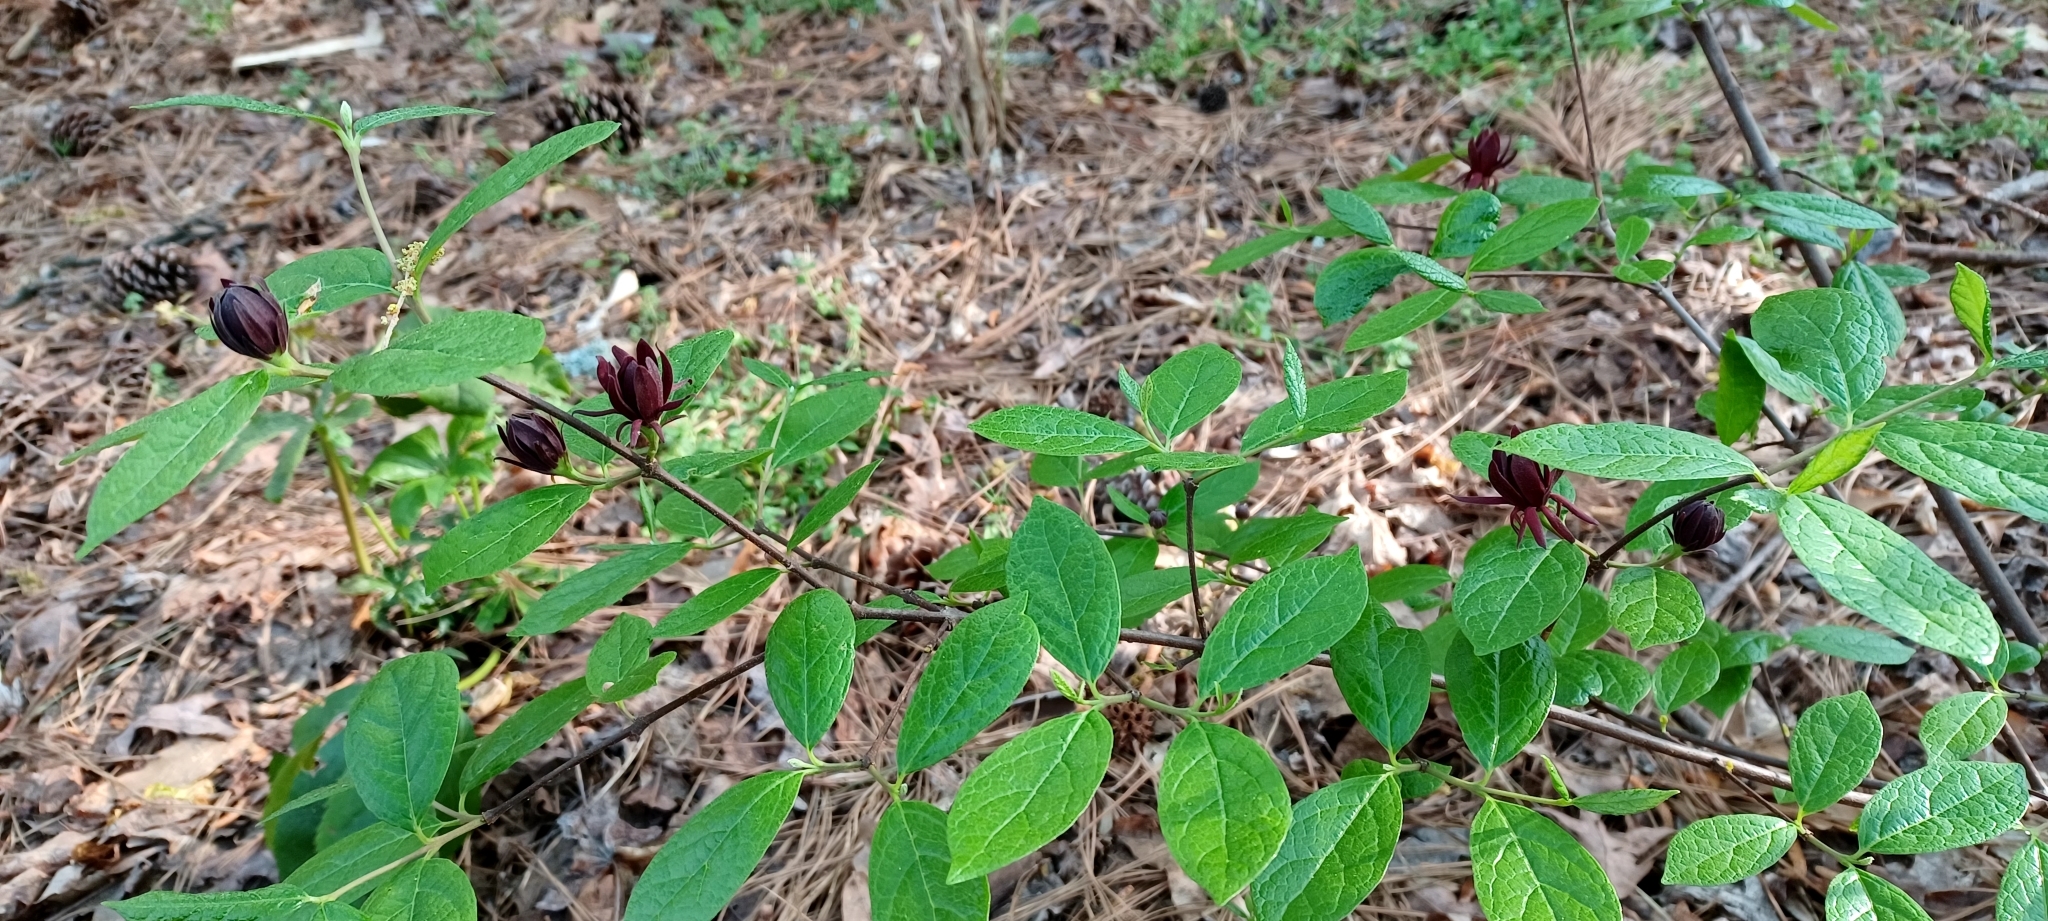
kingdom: Plantae
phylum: Tracheophyta
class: Magnoliopsida
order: Laurales
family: Calycanthaceae
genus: Calycanthus
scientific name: Calycanthus floridus
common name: Carolina-allspice
